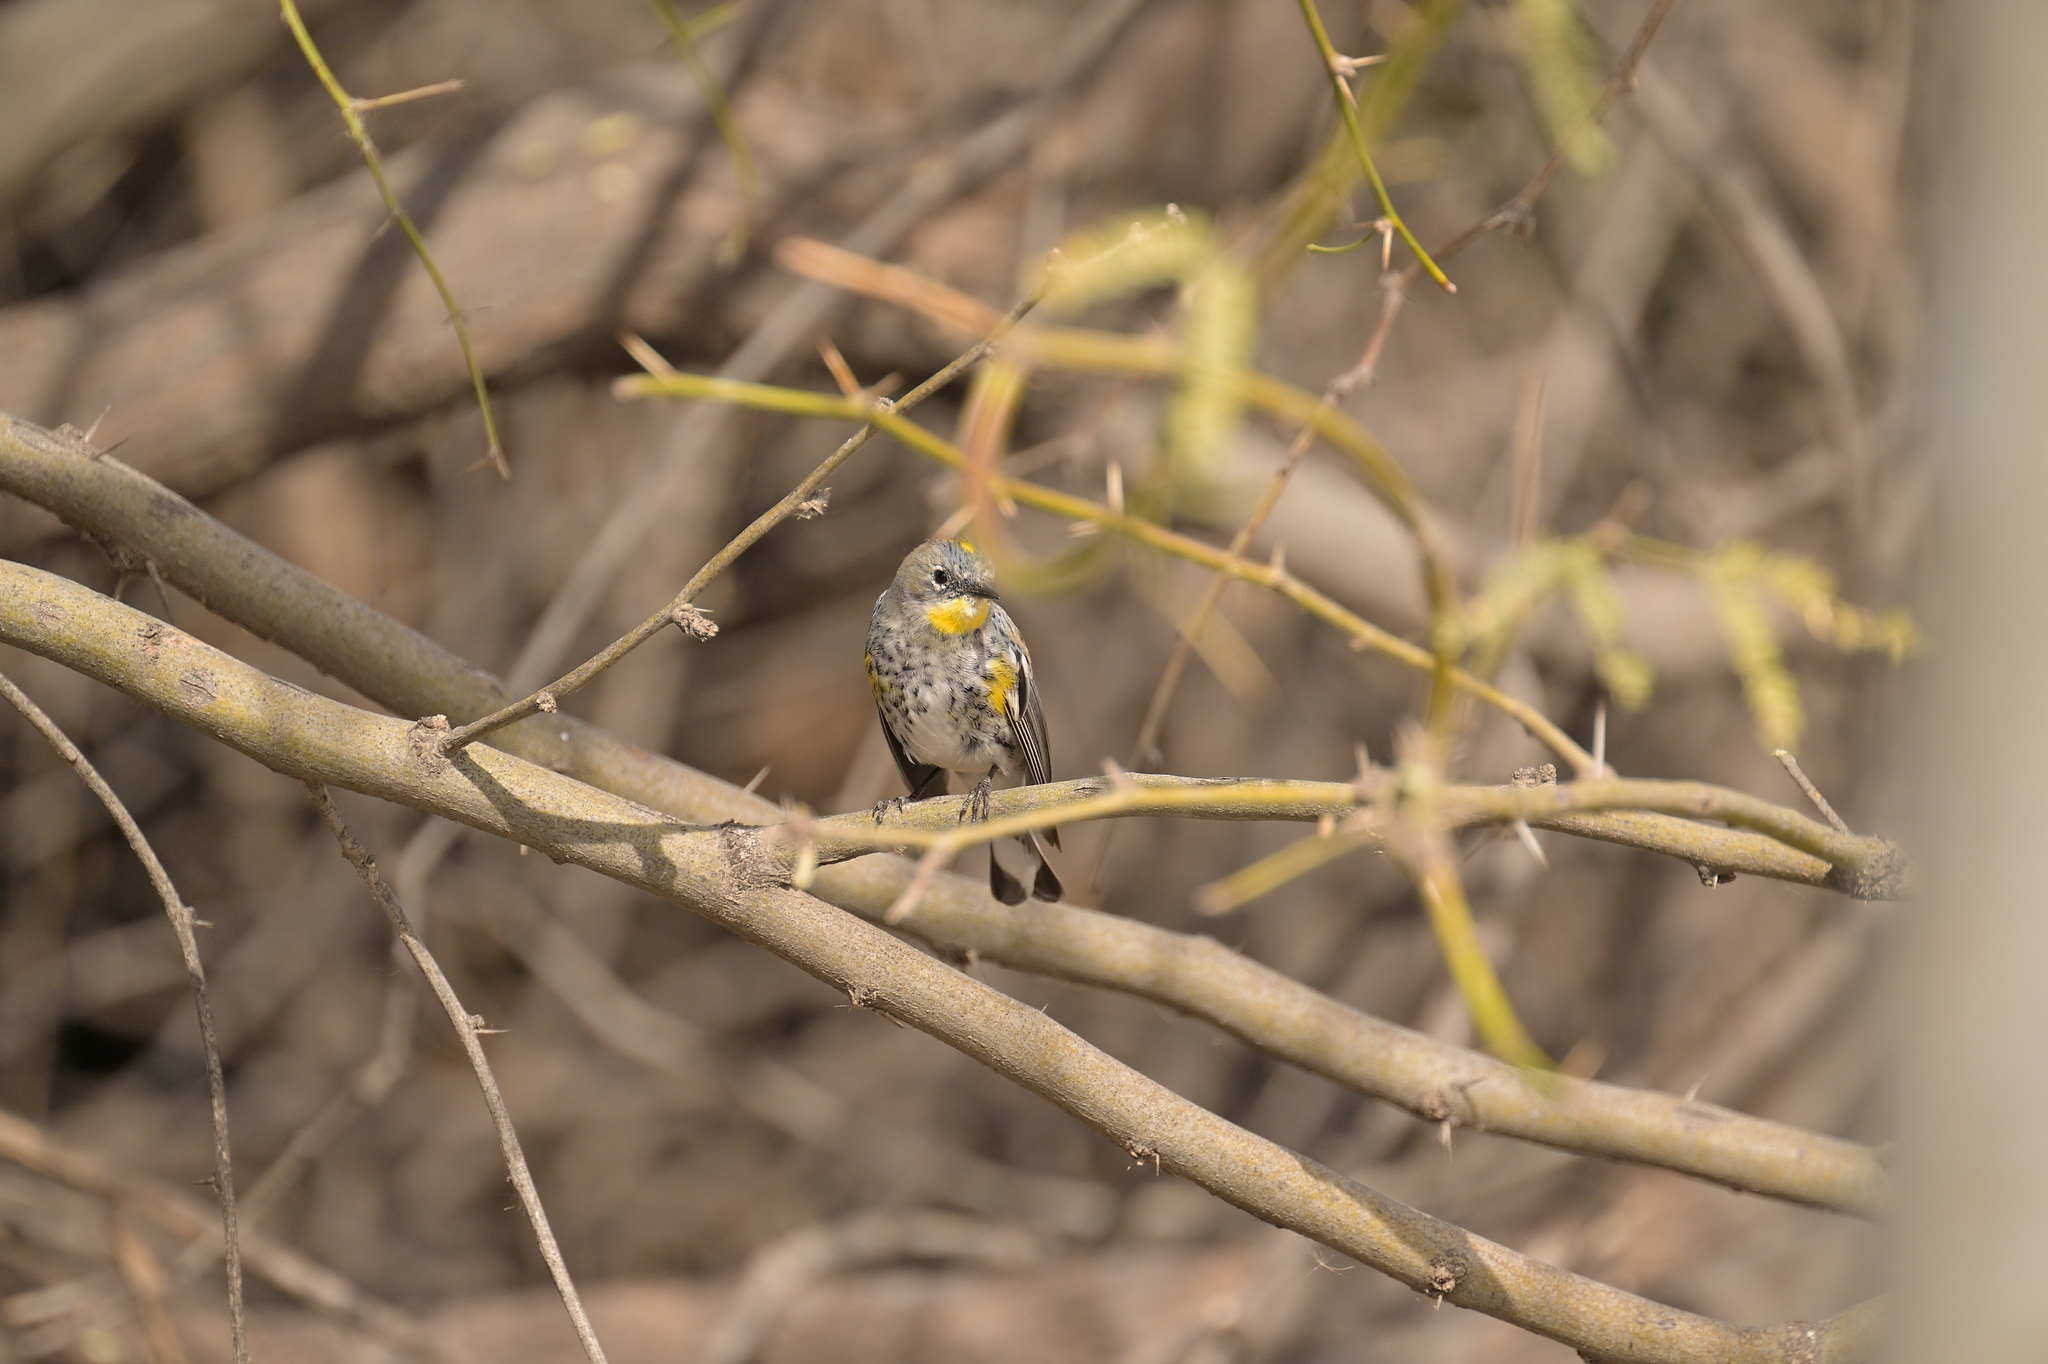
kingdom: Animalia
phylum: Chordata
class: Aves
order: Passeriformes
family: Parulidae
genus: Setophaga
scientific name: Setophaga coronata
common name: Myrtle warbler
